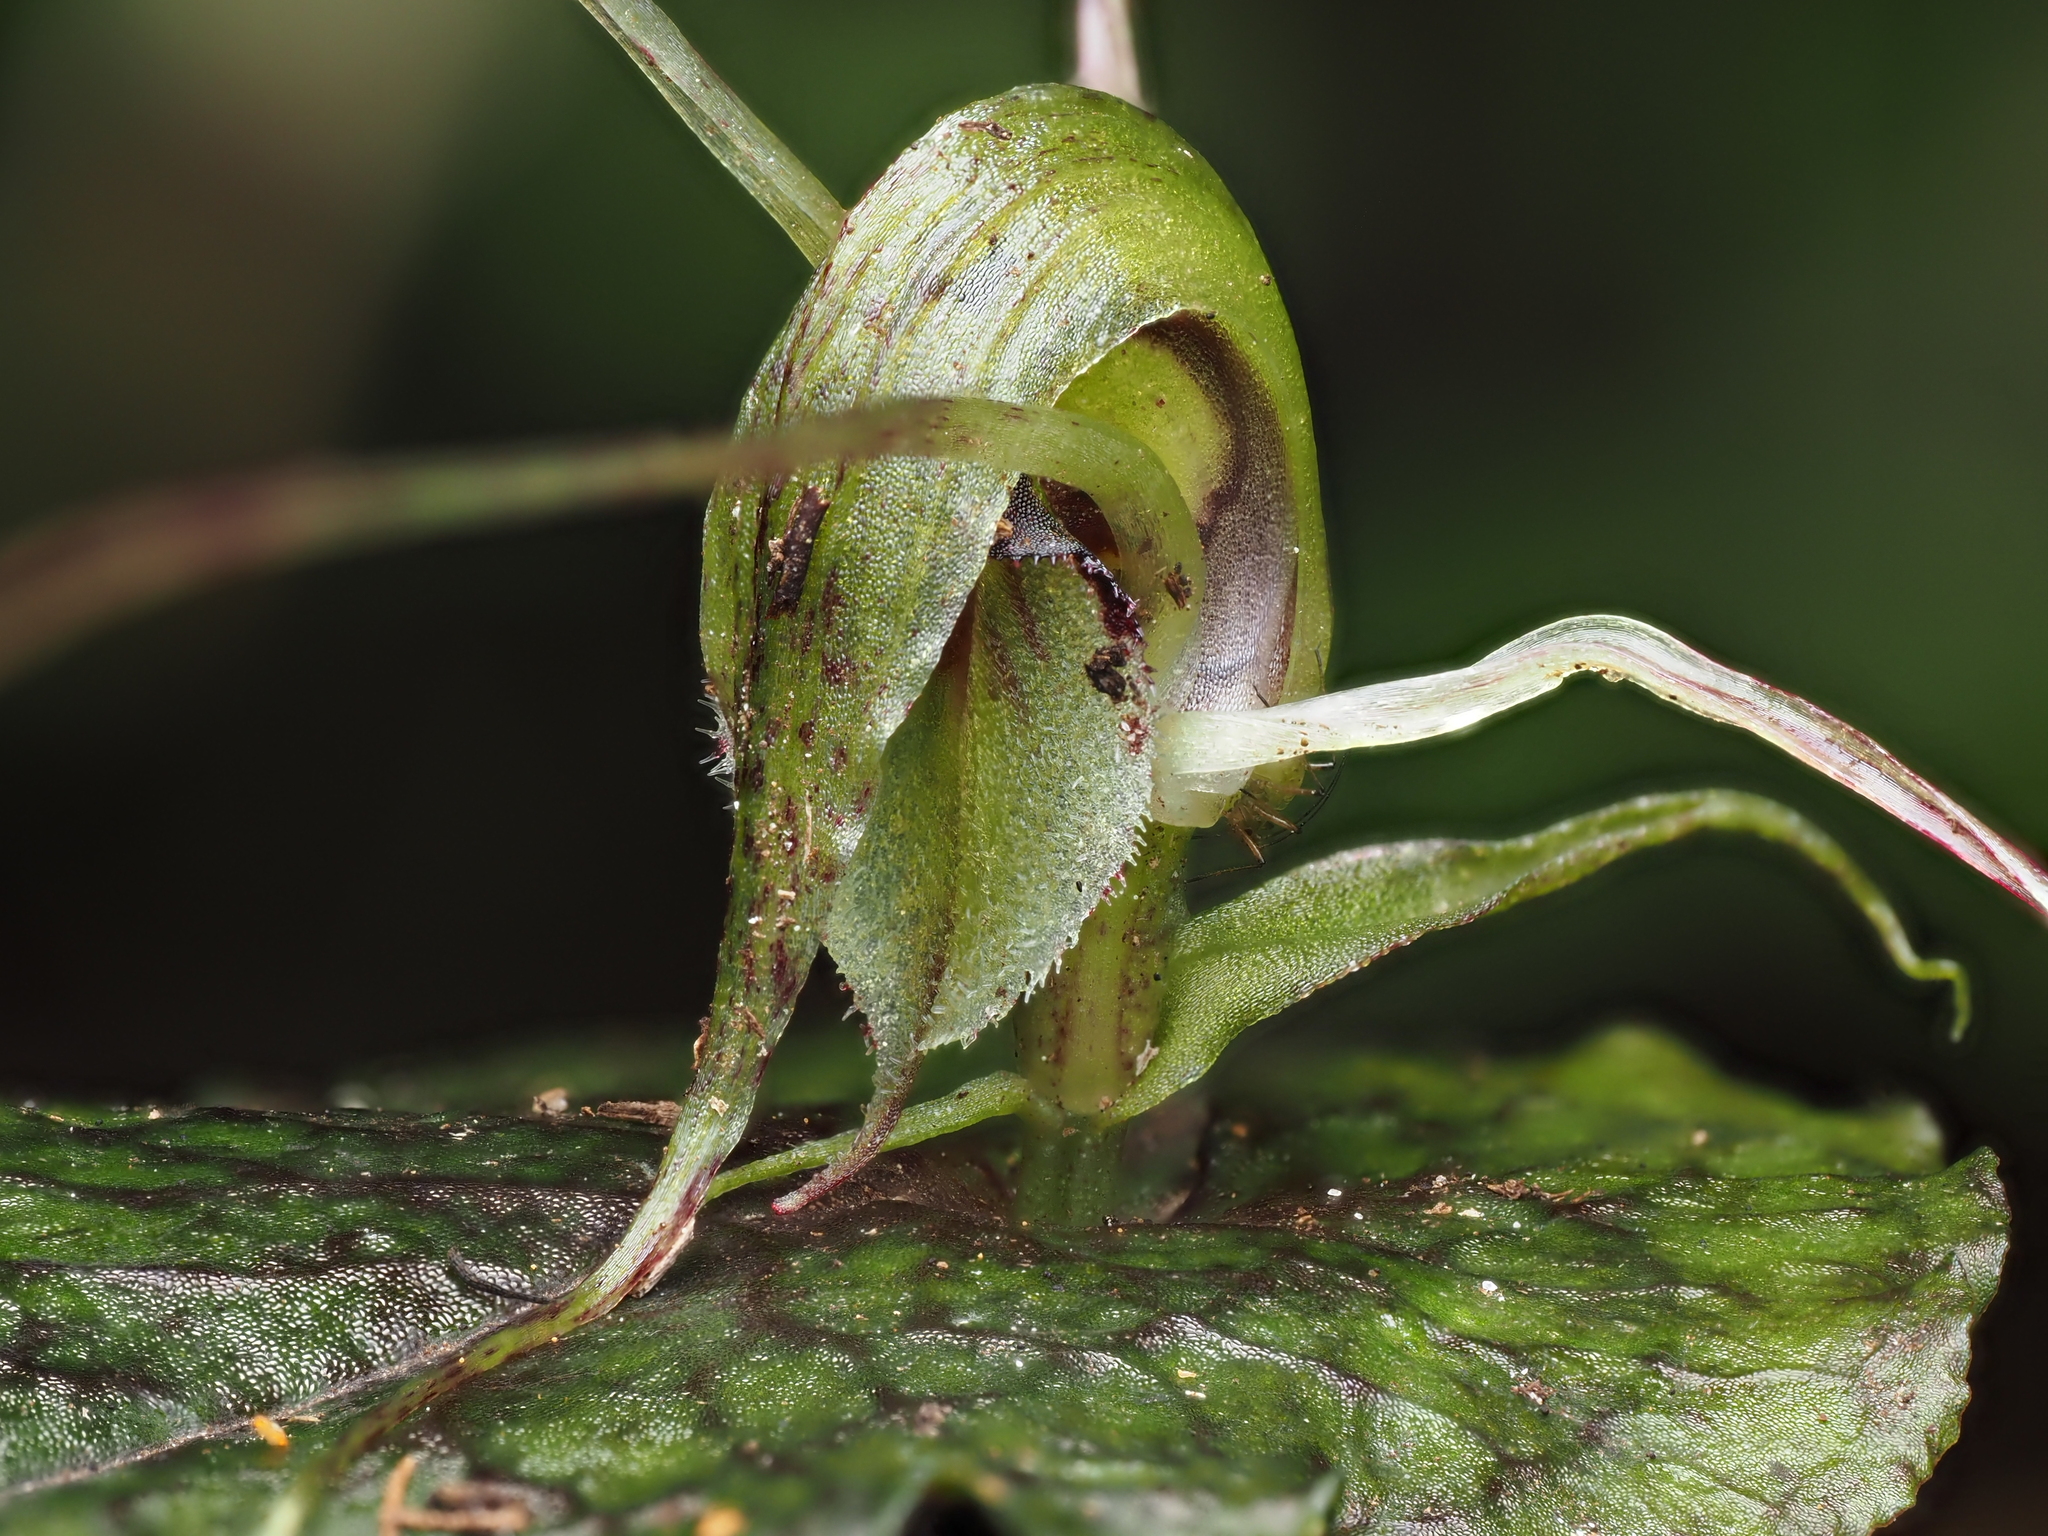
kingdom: Plantae
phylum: Tracheophyta
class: Liliopsida
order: Asparagales
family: Orchidaceae
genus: Corybas
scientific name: Corybas acuminatus
